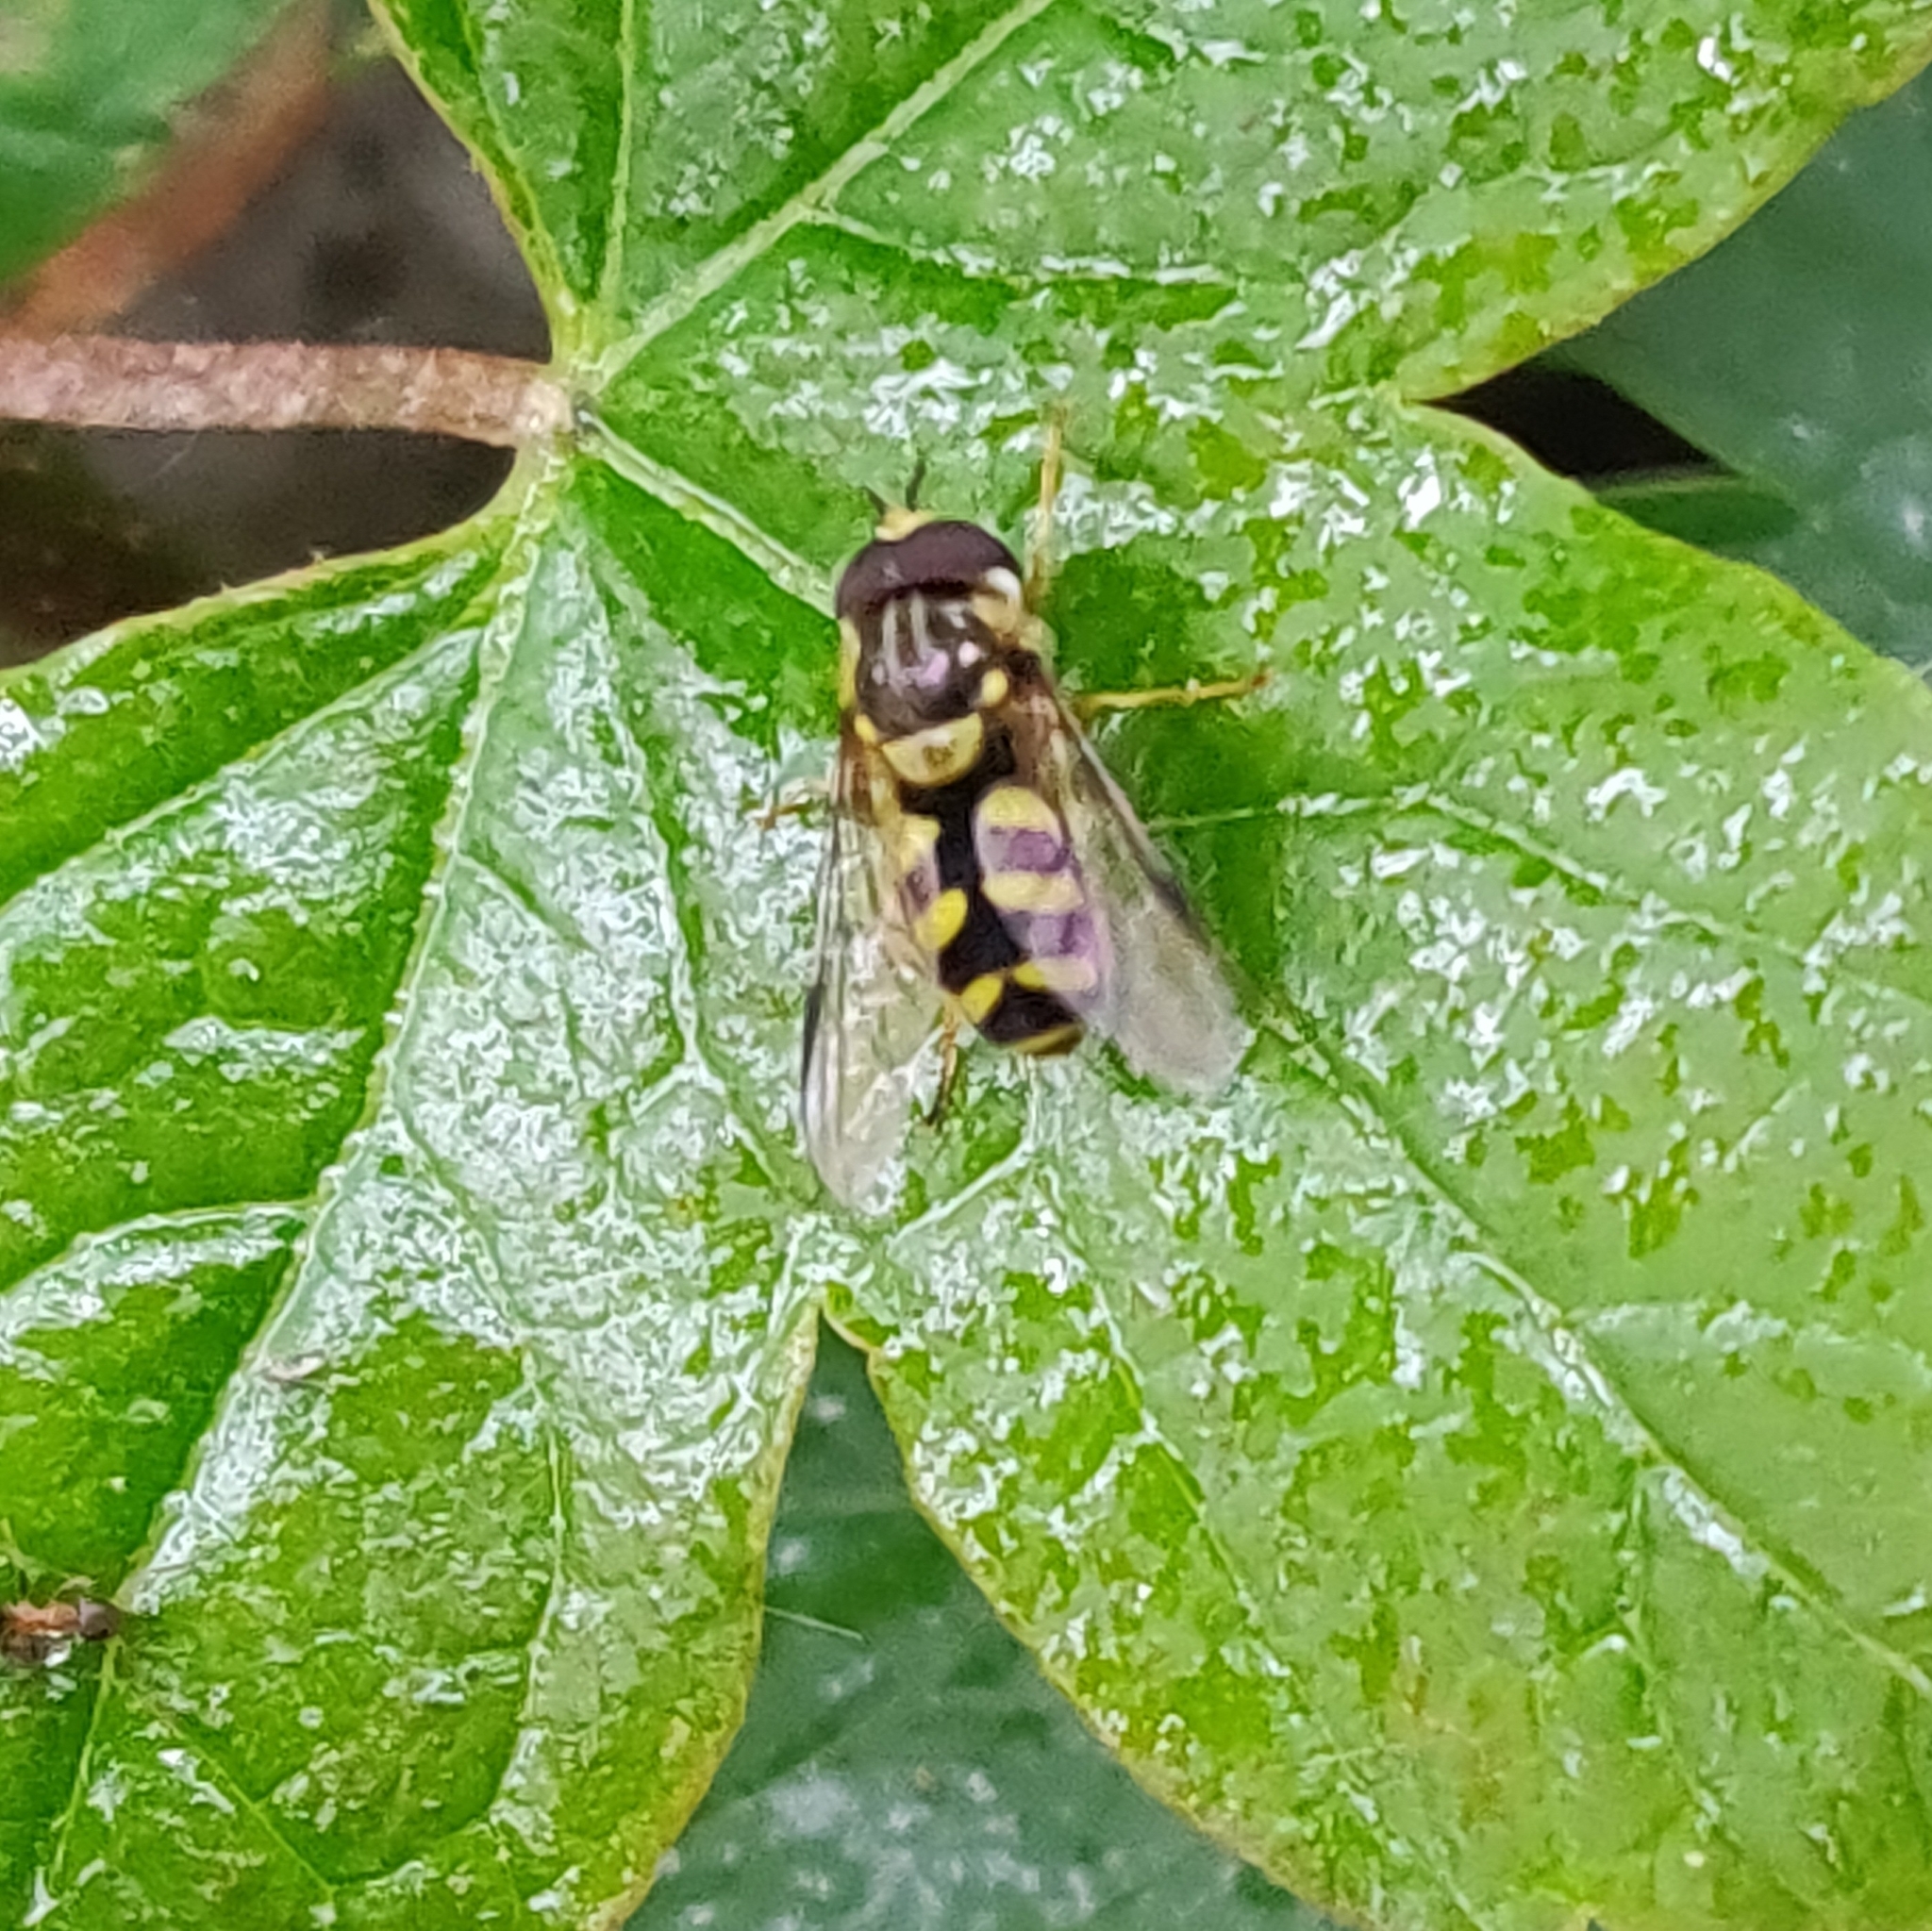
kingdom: Animalia
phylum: Arthropoda
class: Insecta
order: Diptera
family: Syrphidae
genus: Dasysyrphus
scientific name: Dasysyrphus albostriatus
